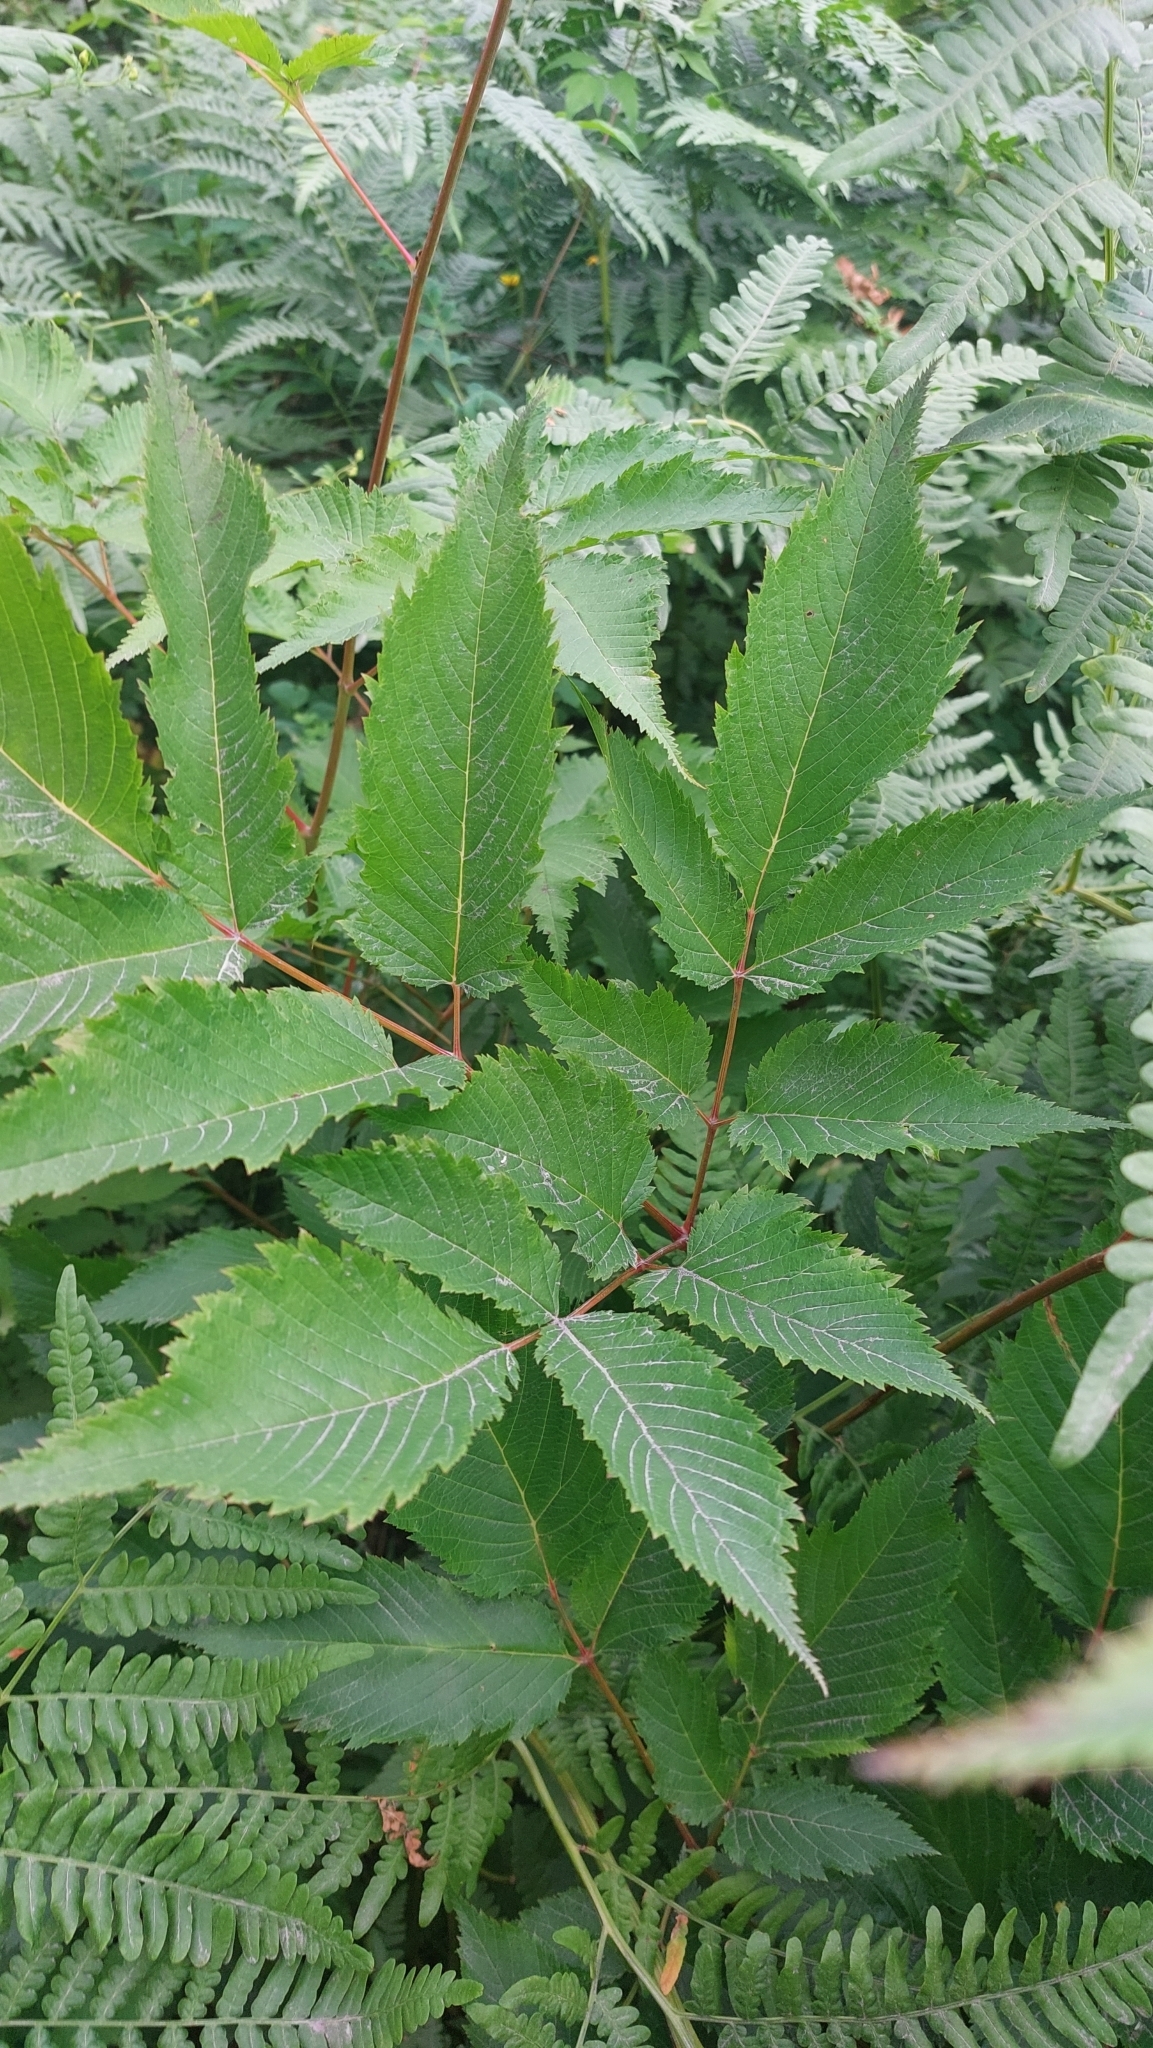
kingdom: Plantae
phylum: Tracheophyta
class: Magnoliopsida
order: Rosales
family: Rosaceae
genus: Aruncus
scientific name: Aruncus dioicus
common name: Buck's-beard
